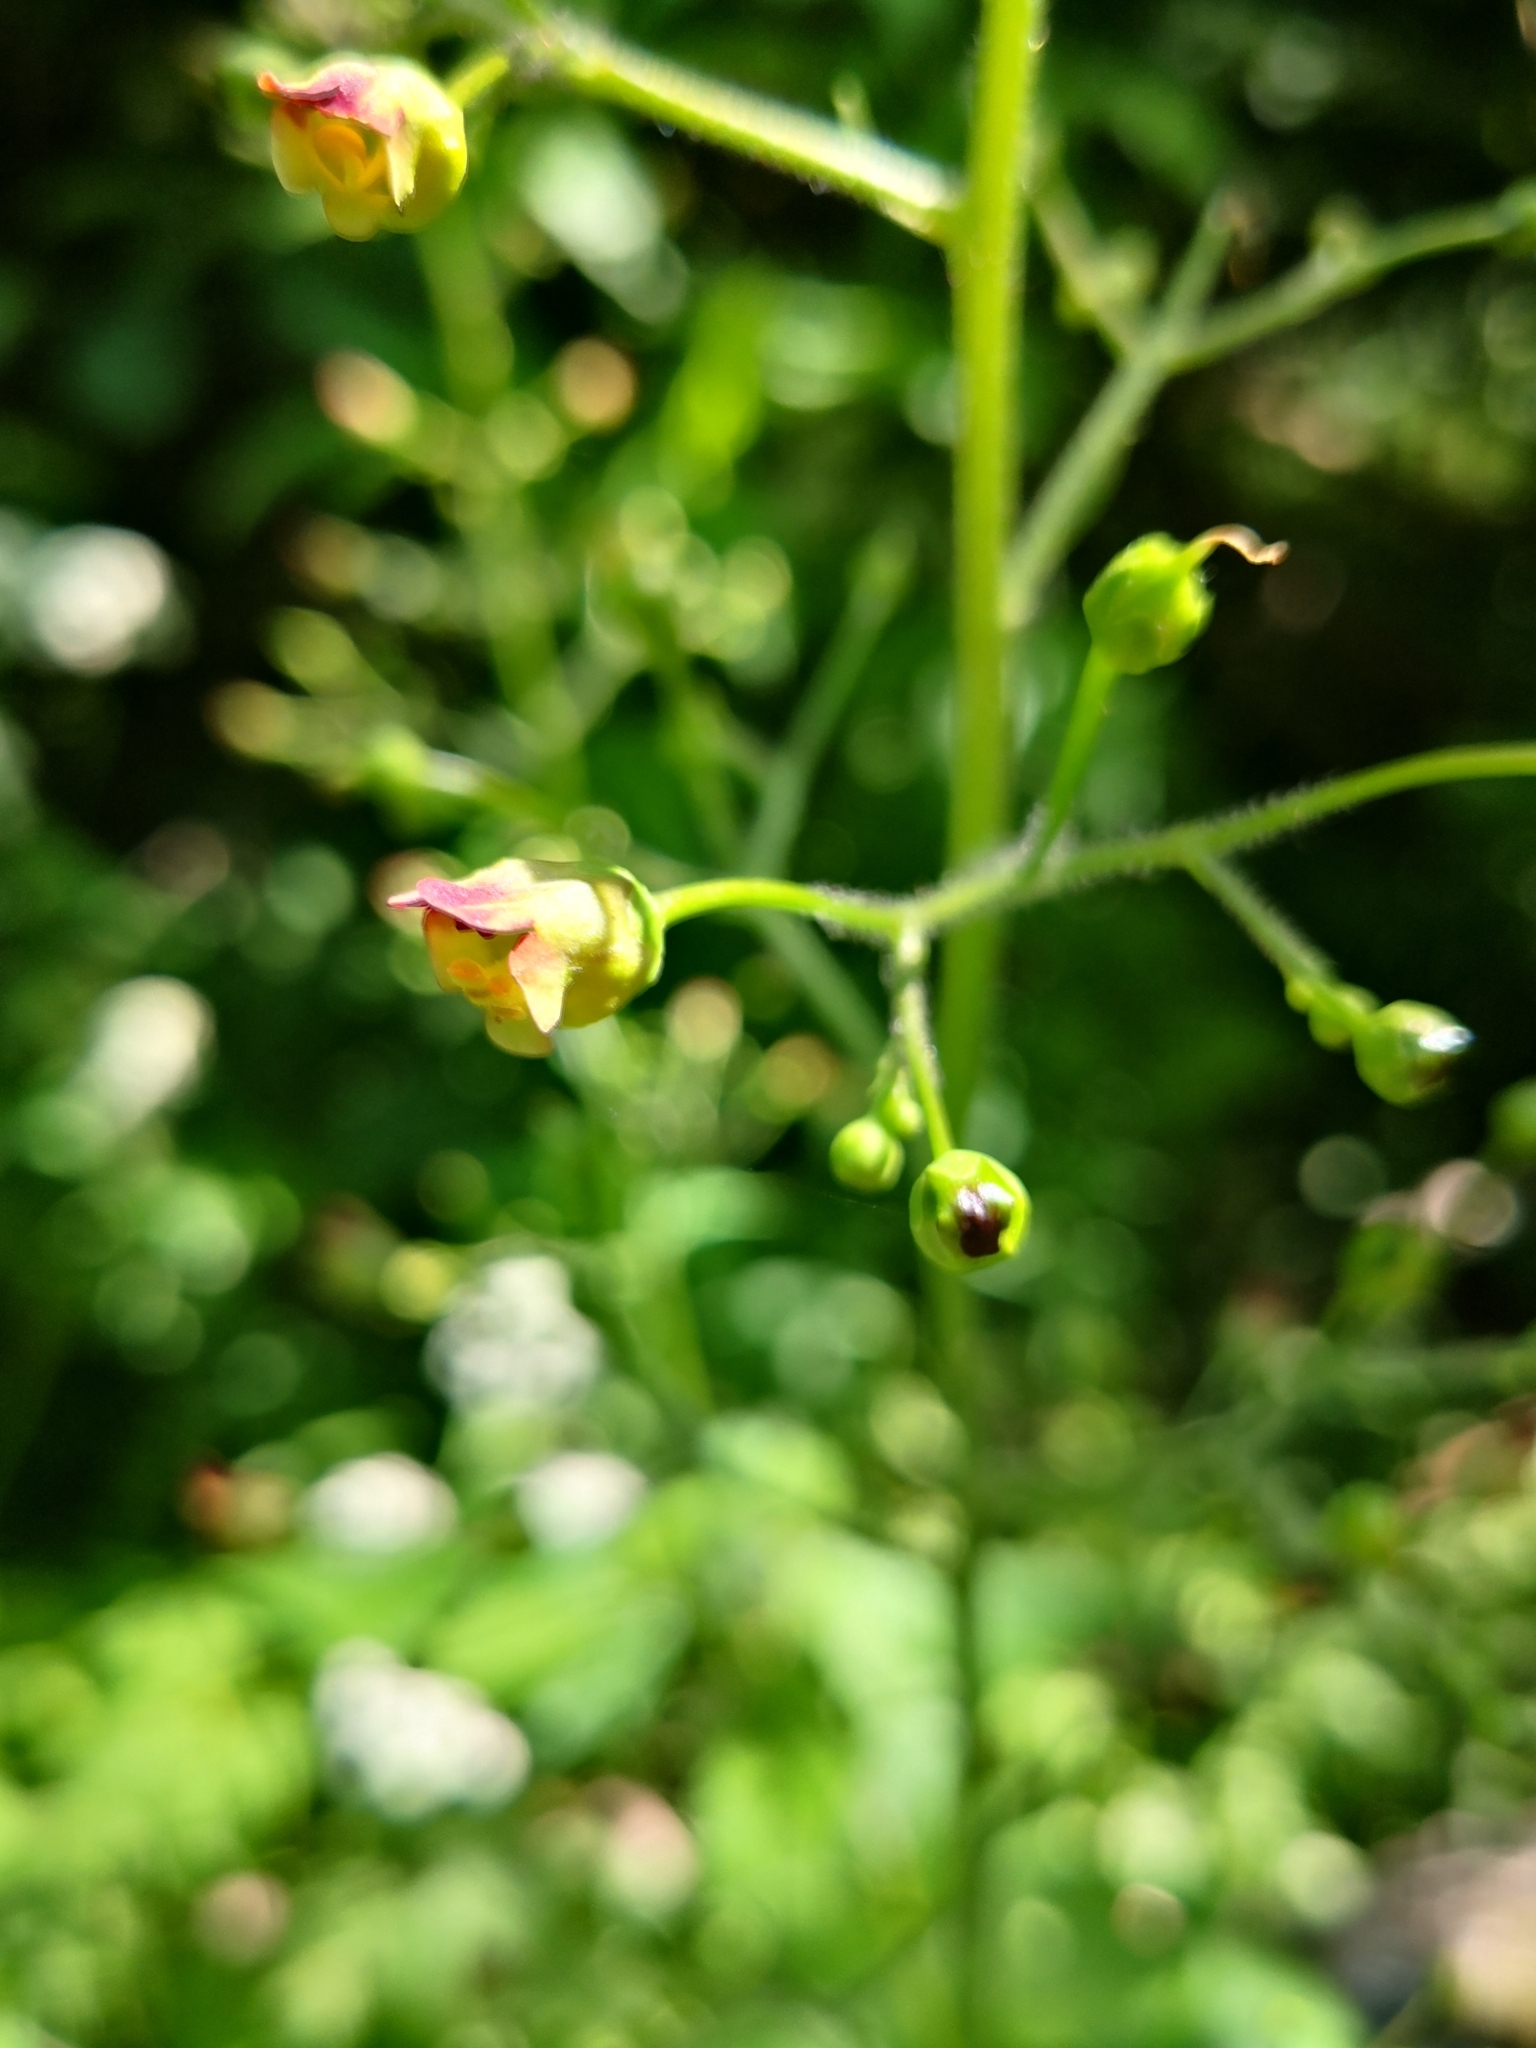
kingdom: Plantae
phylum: Tracheophyta
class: Magnoliopsida
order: Lamiales
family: Scrophulariaceae
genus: Scrophularia
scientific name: Scrophularia nodosa
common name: Common figwort
